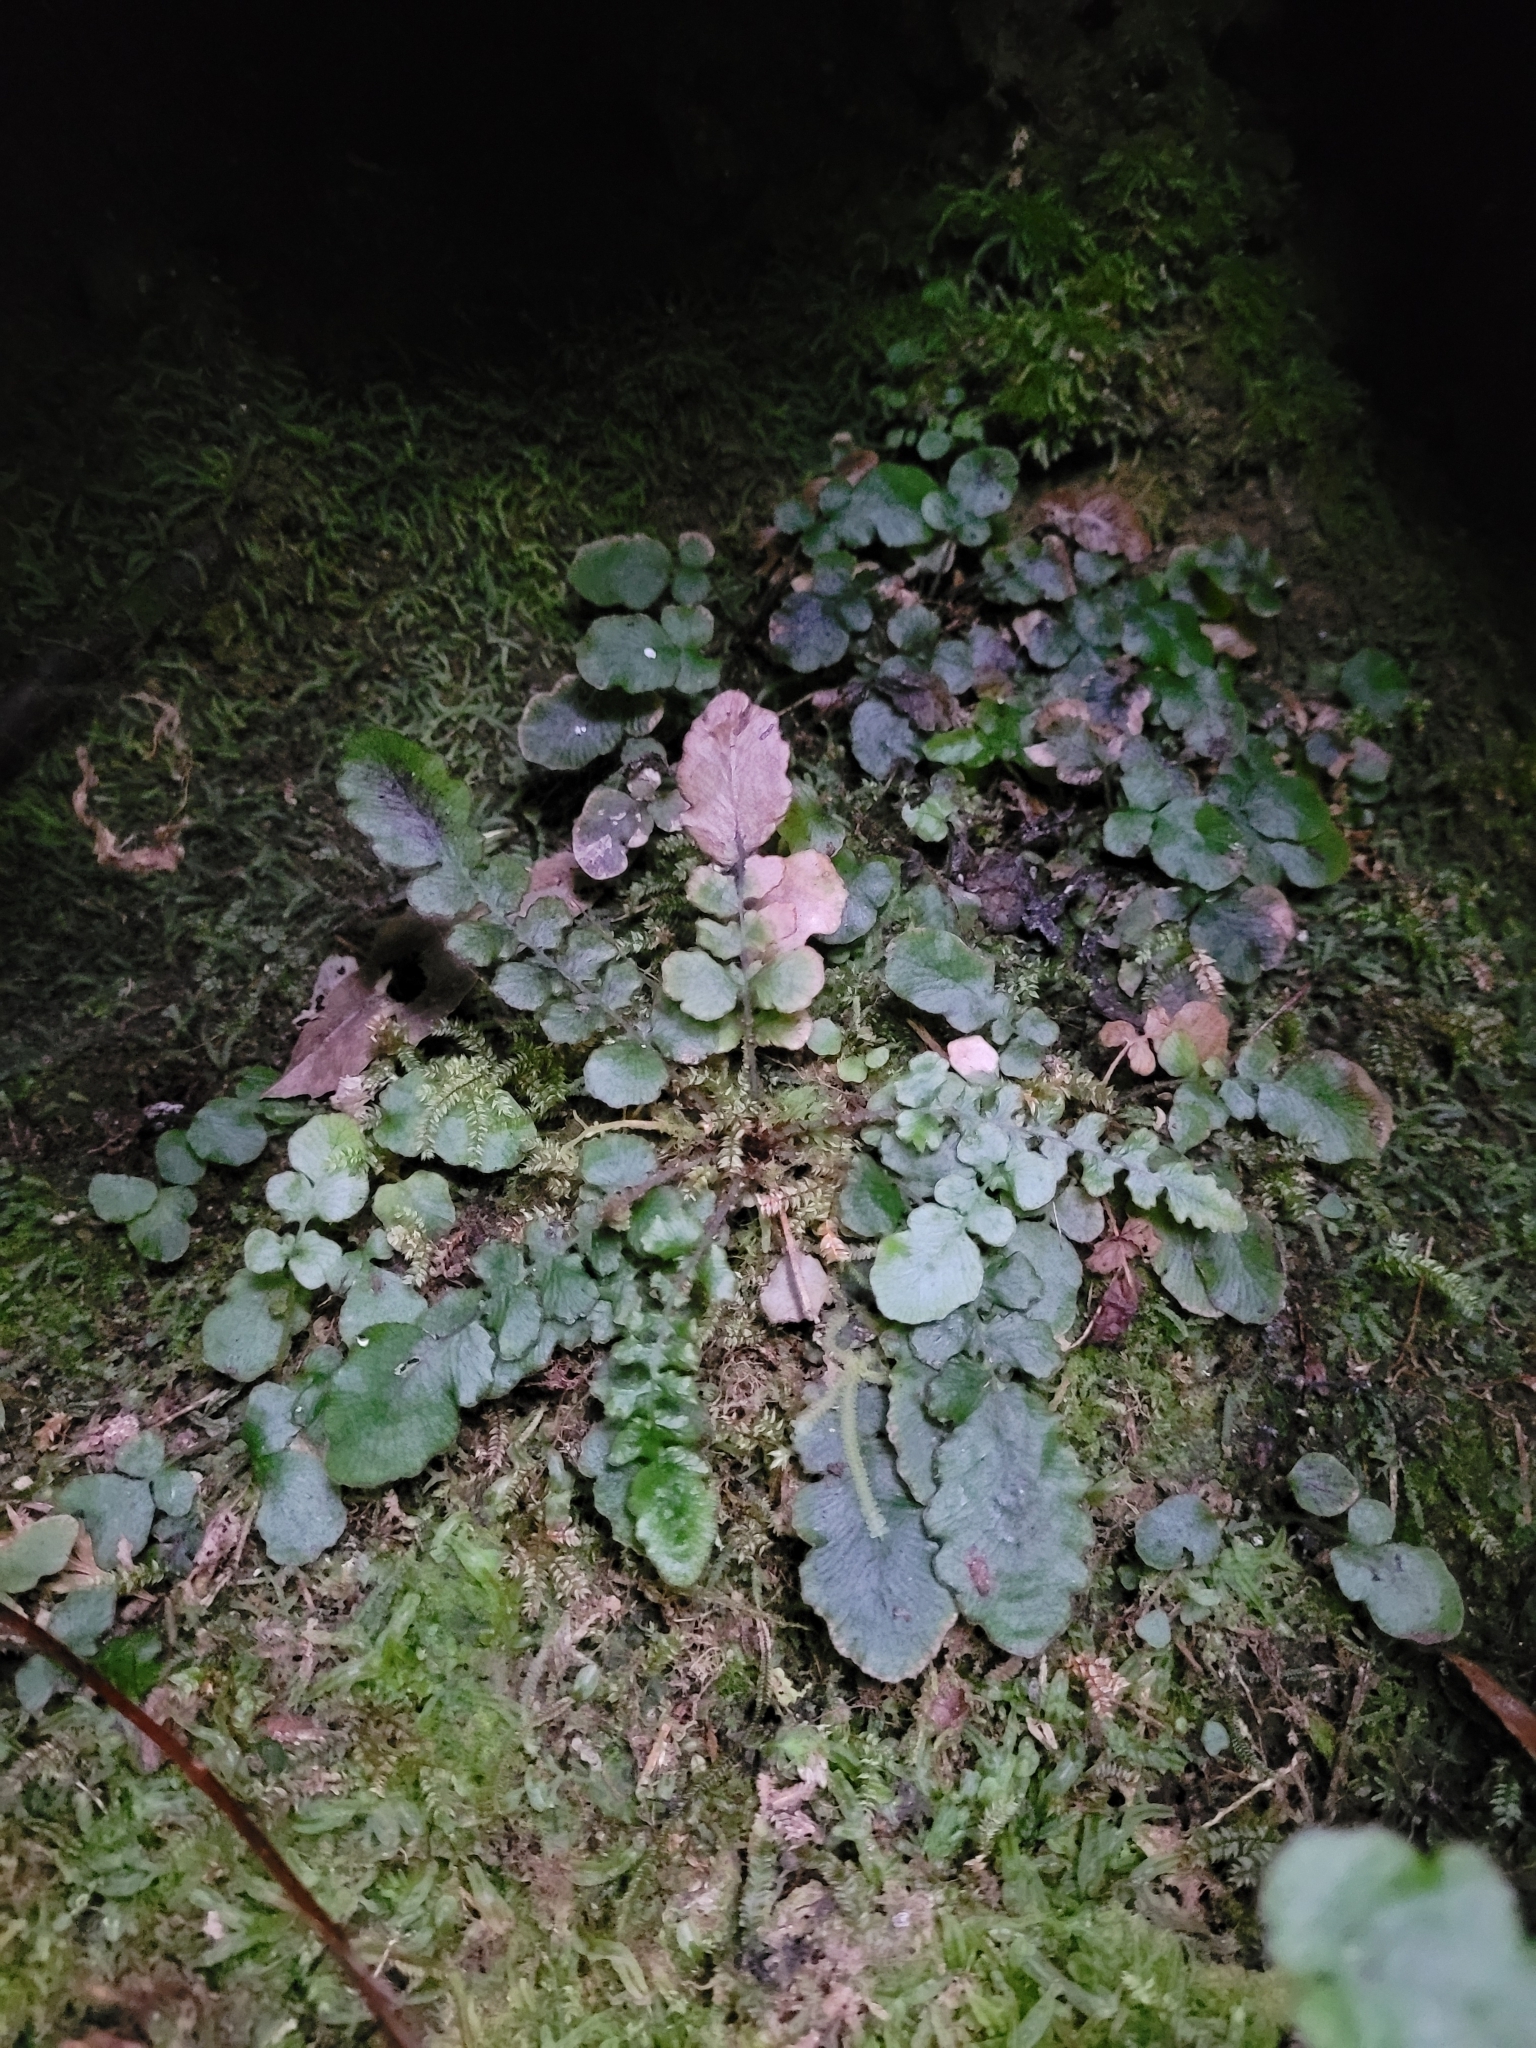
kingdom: Plantae
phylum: Tracheophyta
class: Polypodiopsida
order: Polypodiales
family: Blechnaceae
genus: Cranfillia
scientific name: Cranfillia nigra
